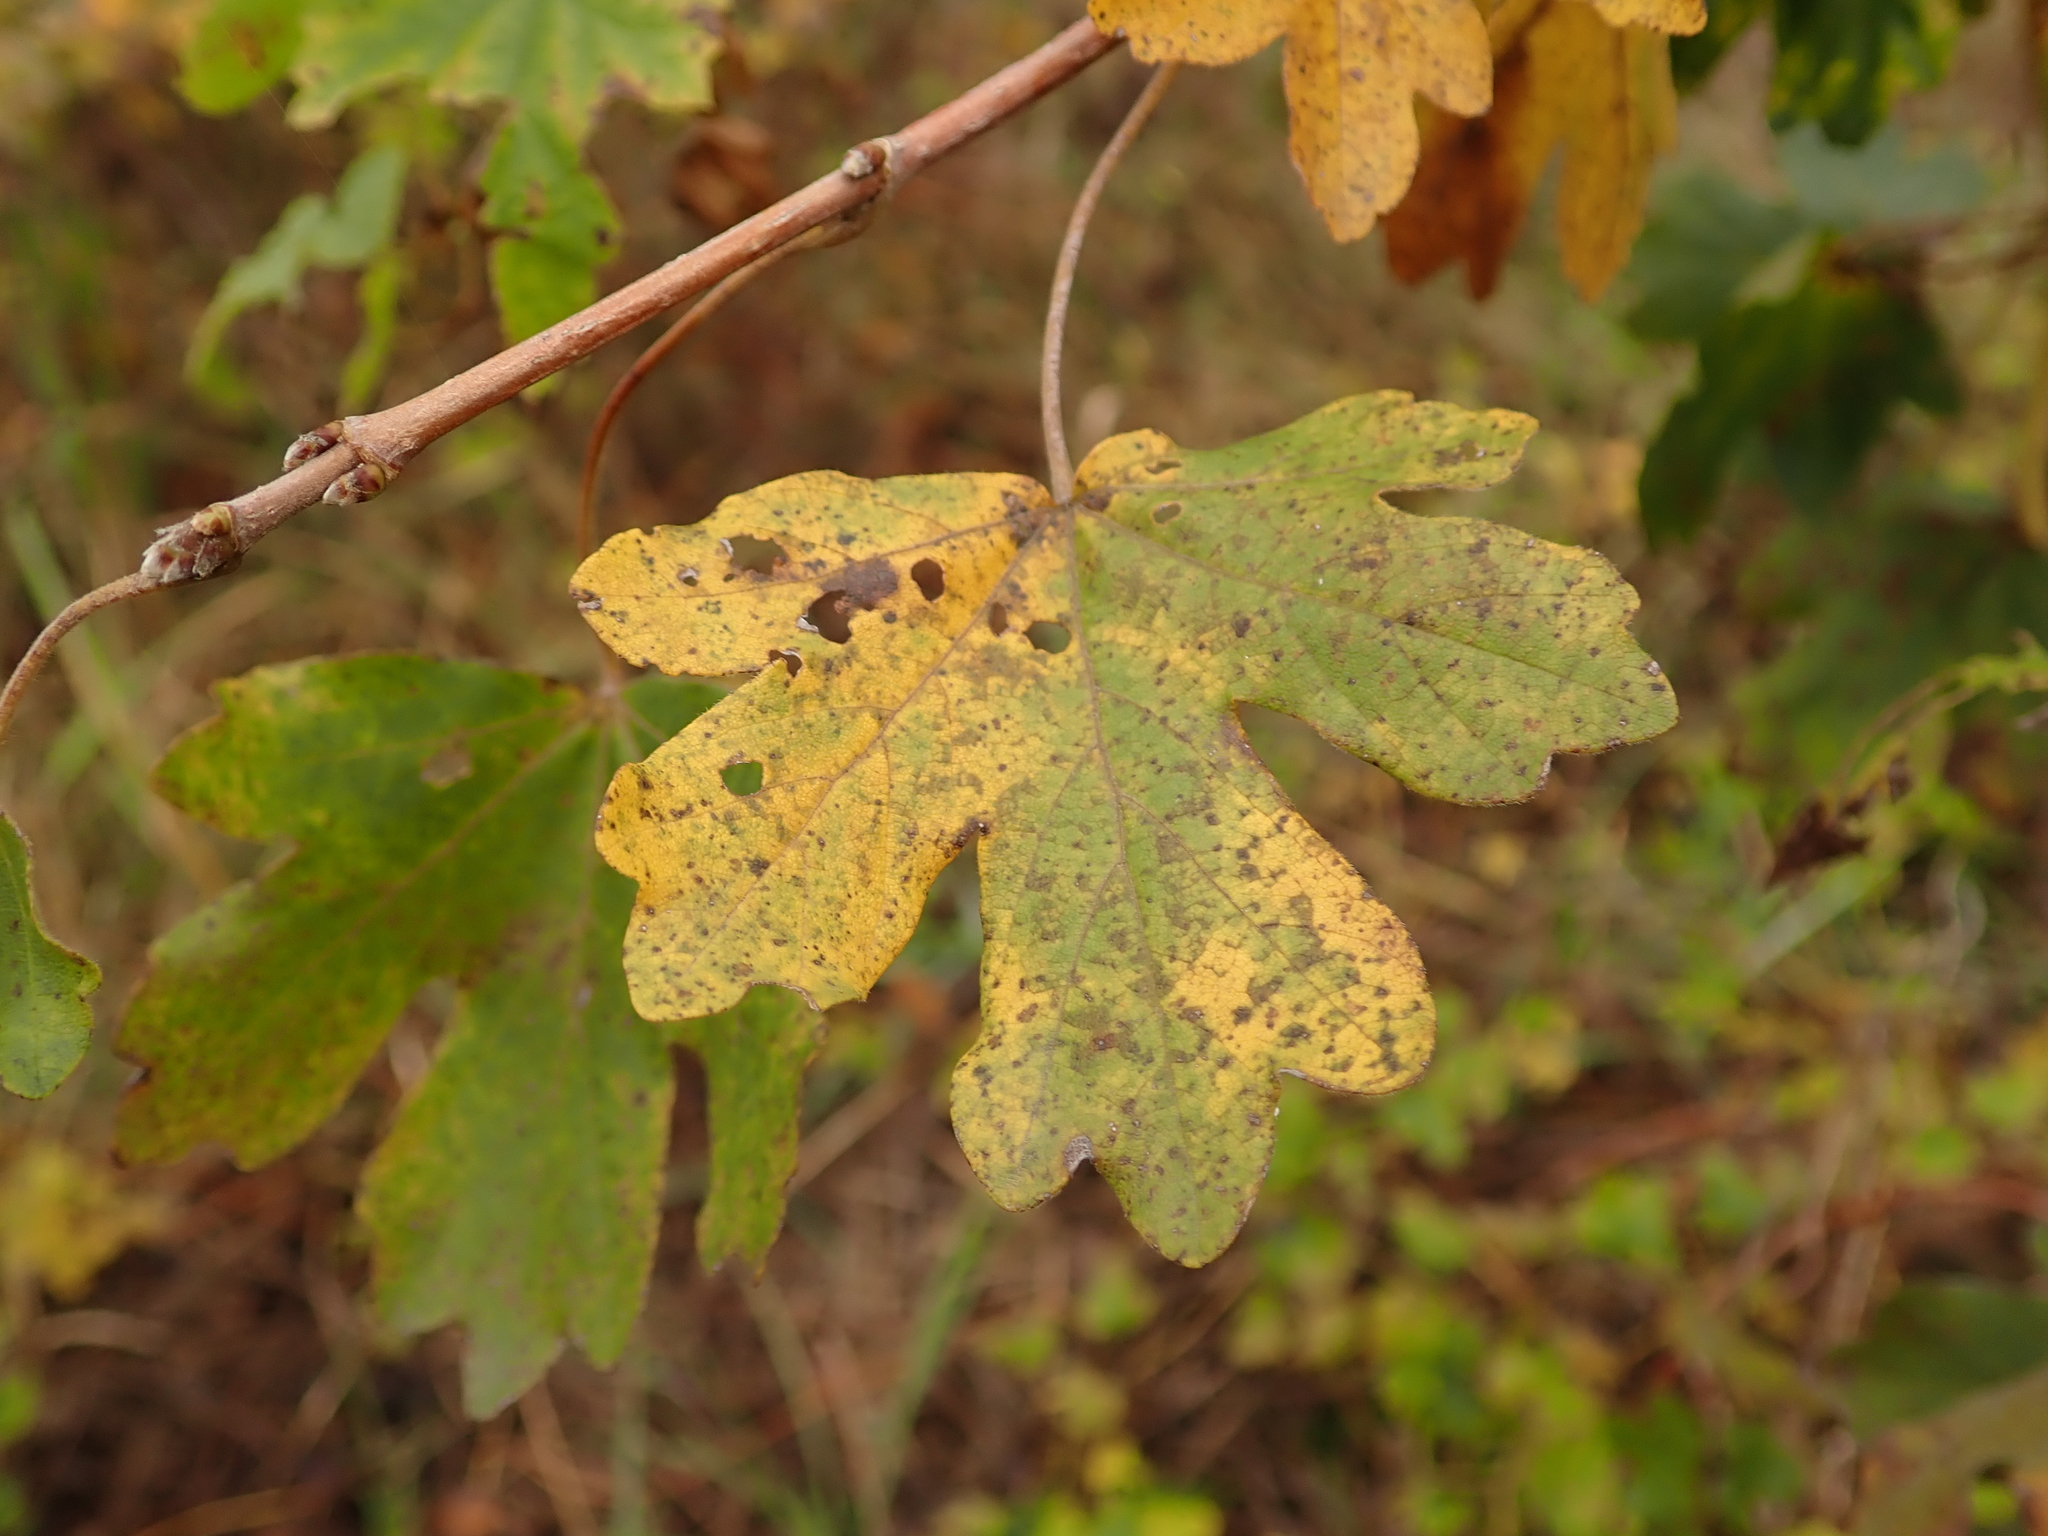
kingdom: Plantae
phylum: Tracheophyta
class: Magnoliopsida
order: Sapindales
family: Sapindaceae
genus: Acer
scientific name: Acer campestre
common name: Field maple
